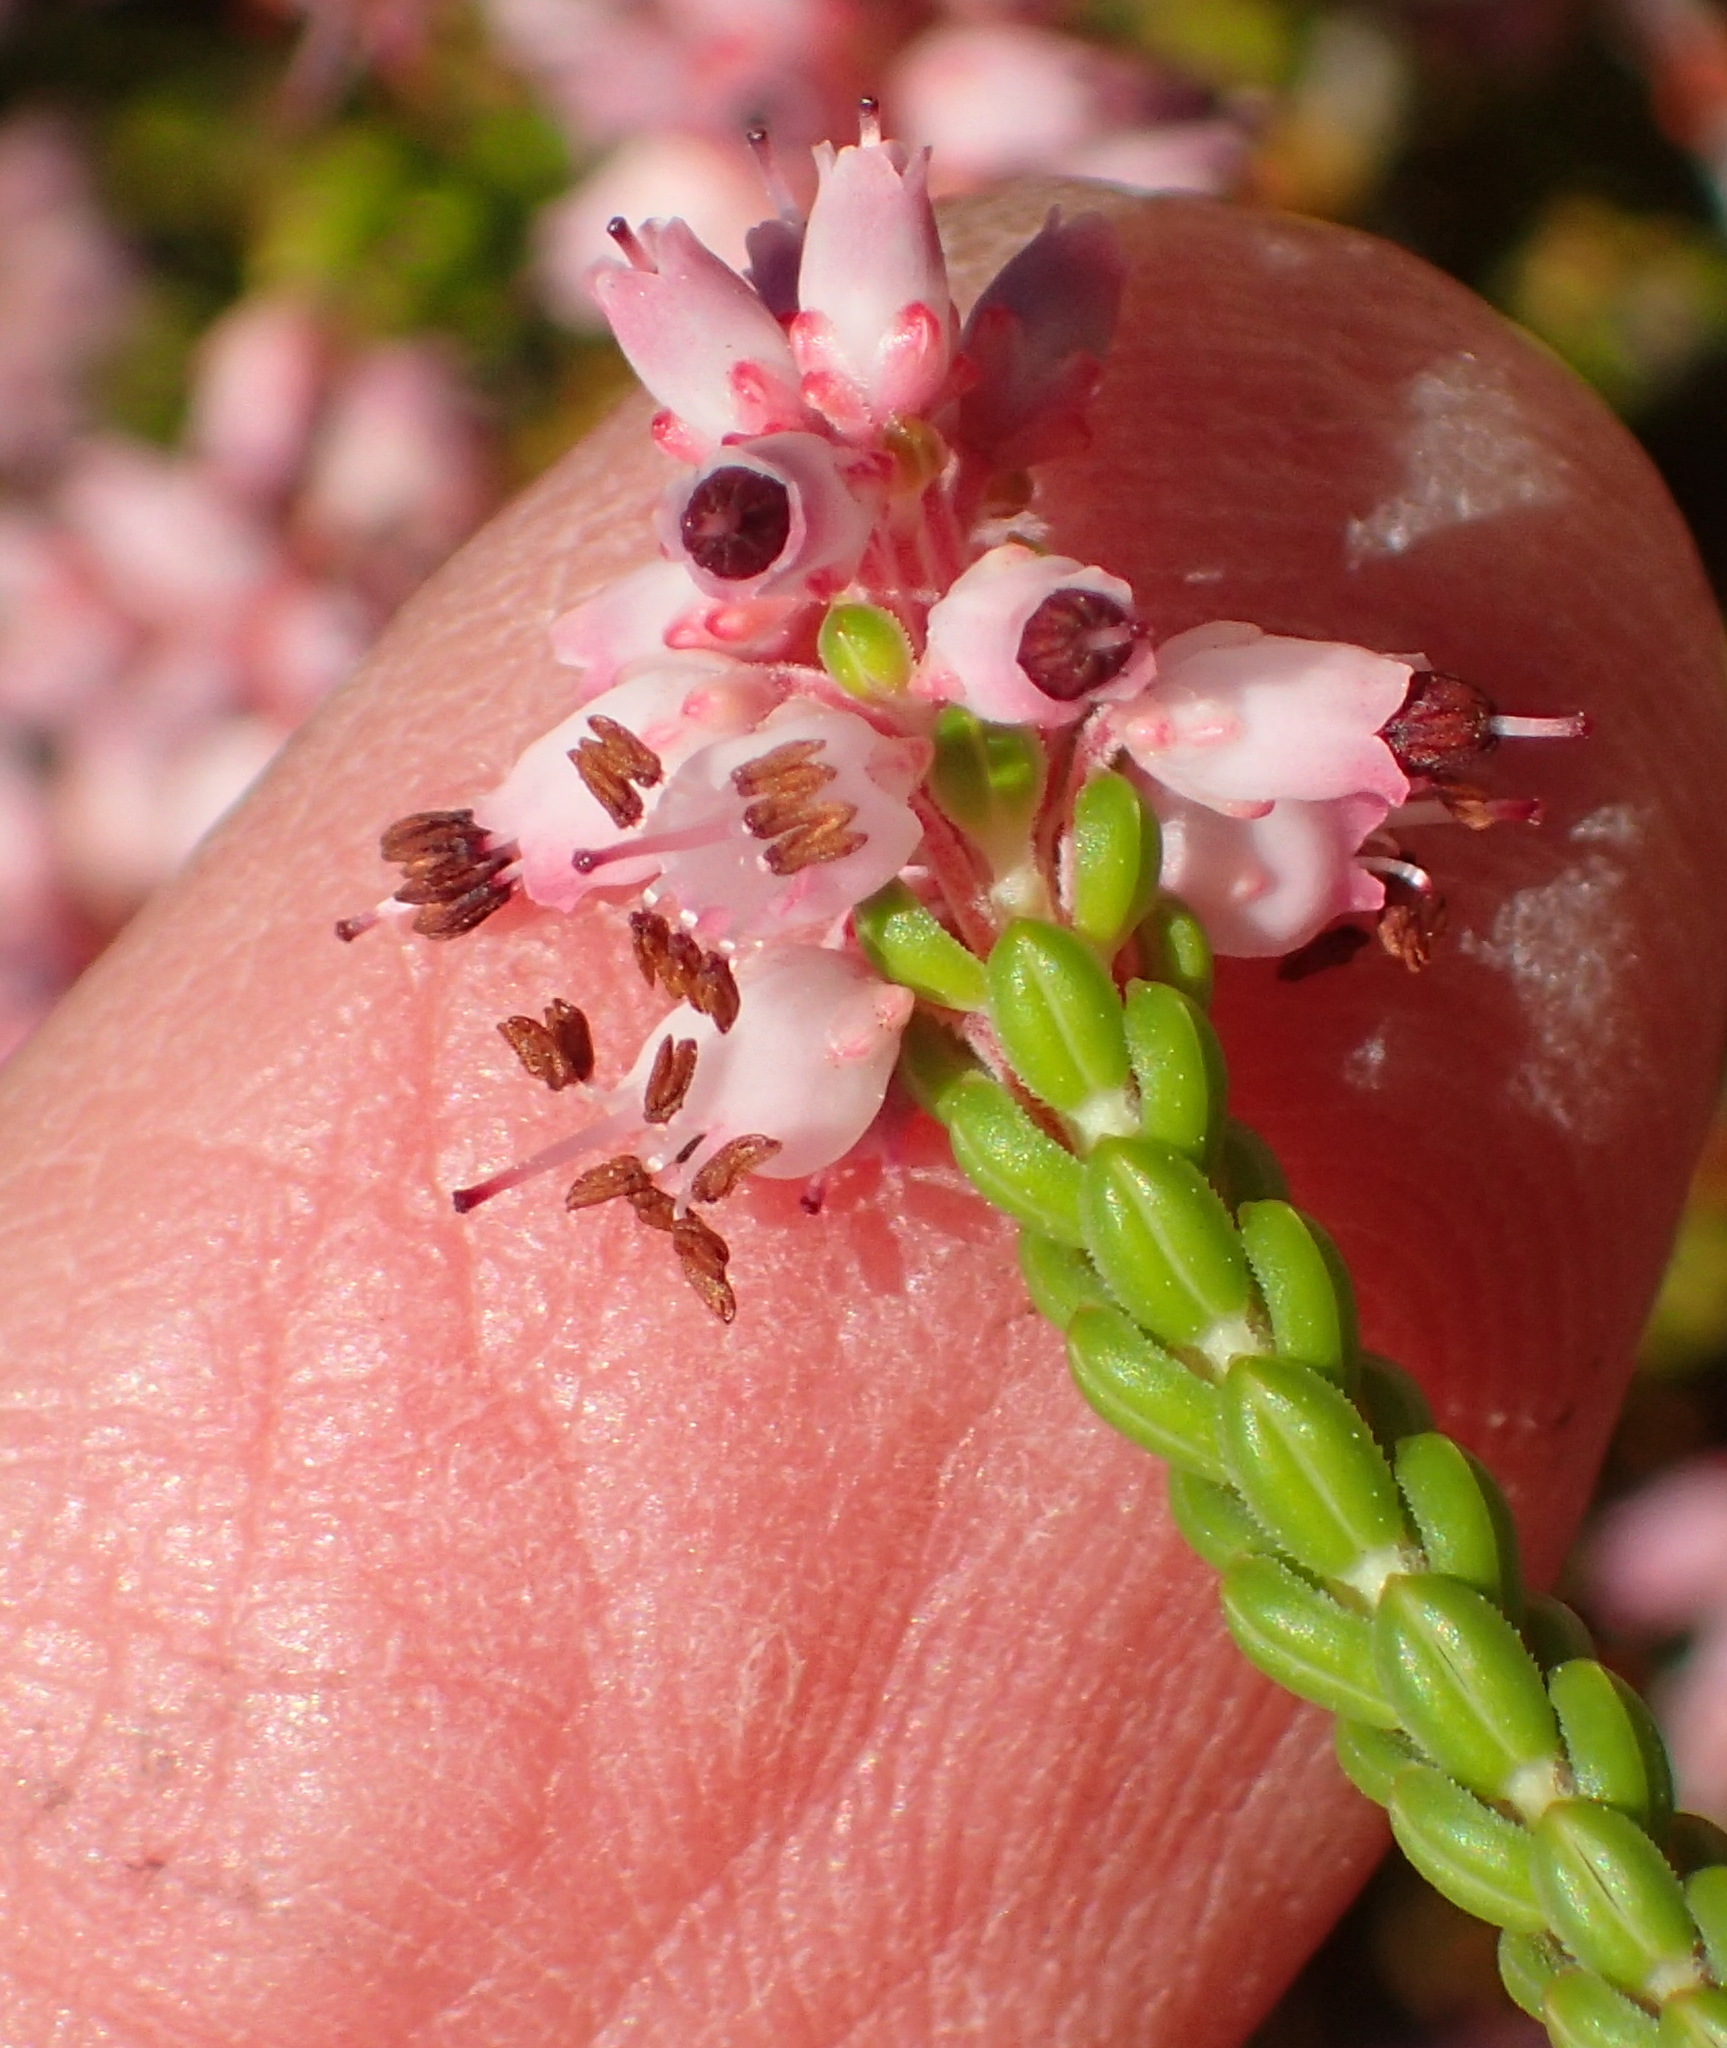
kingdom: Plantae
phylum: Tracheophyta
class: Magnoliopsida
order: Ericales
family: Ericaceae
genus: Erica
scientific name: Erica petraea
